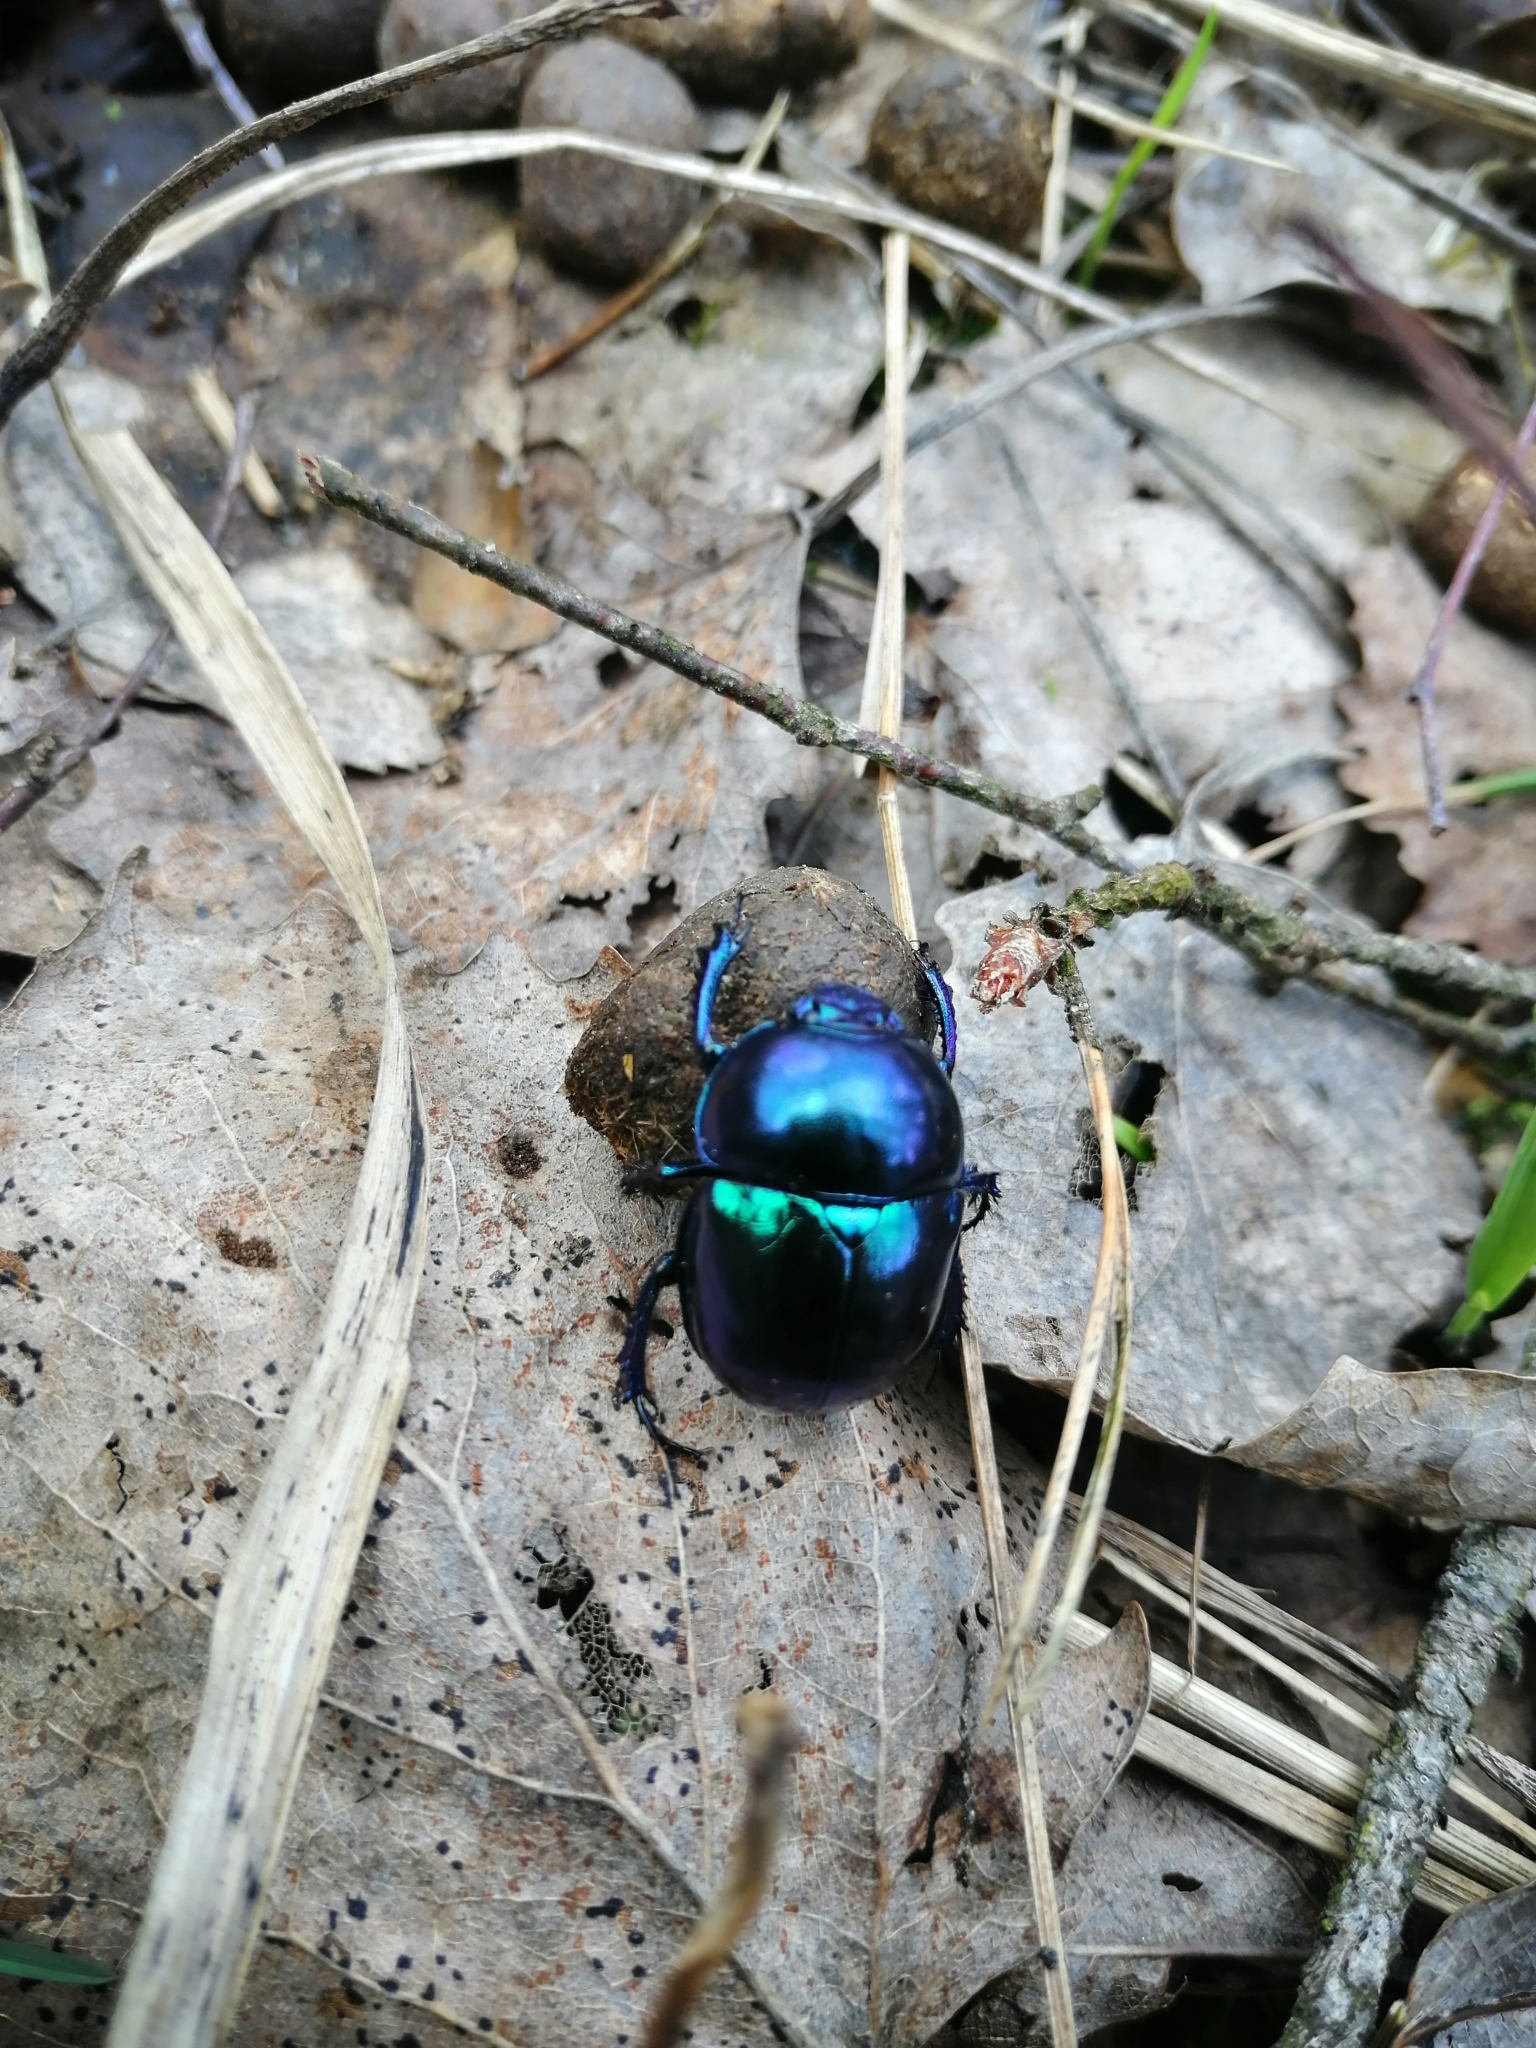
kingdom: Animalia
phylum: Arthropoda
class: Insecta
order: Coleoptera
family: Geotrupidae
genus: Trypocopris
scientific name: Trypocopris vernalis
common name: Spring dumbledor
